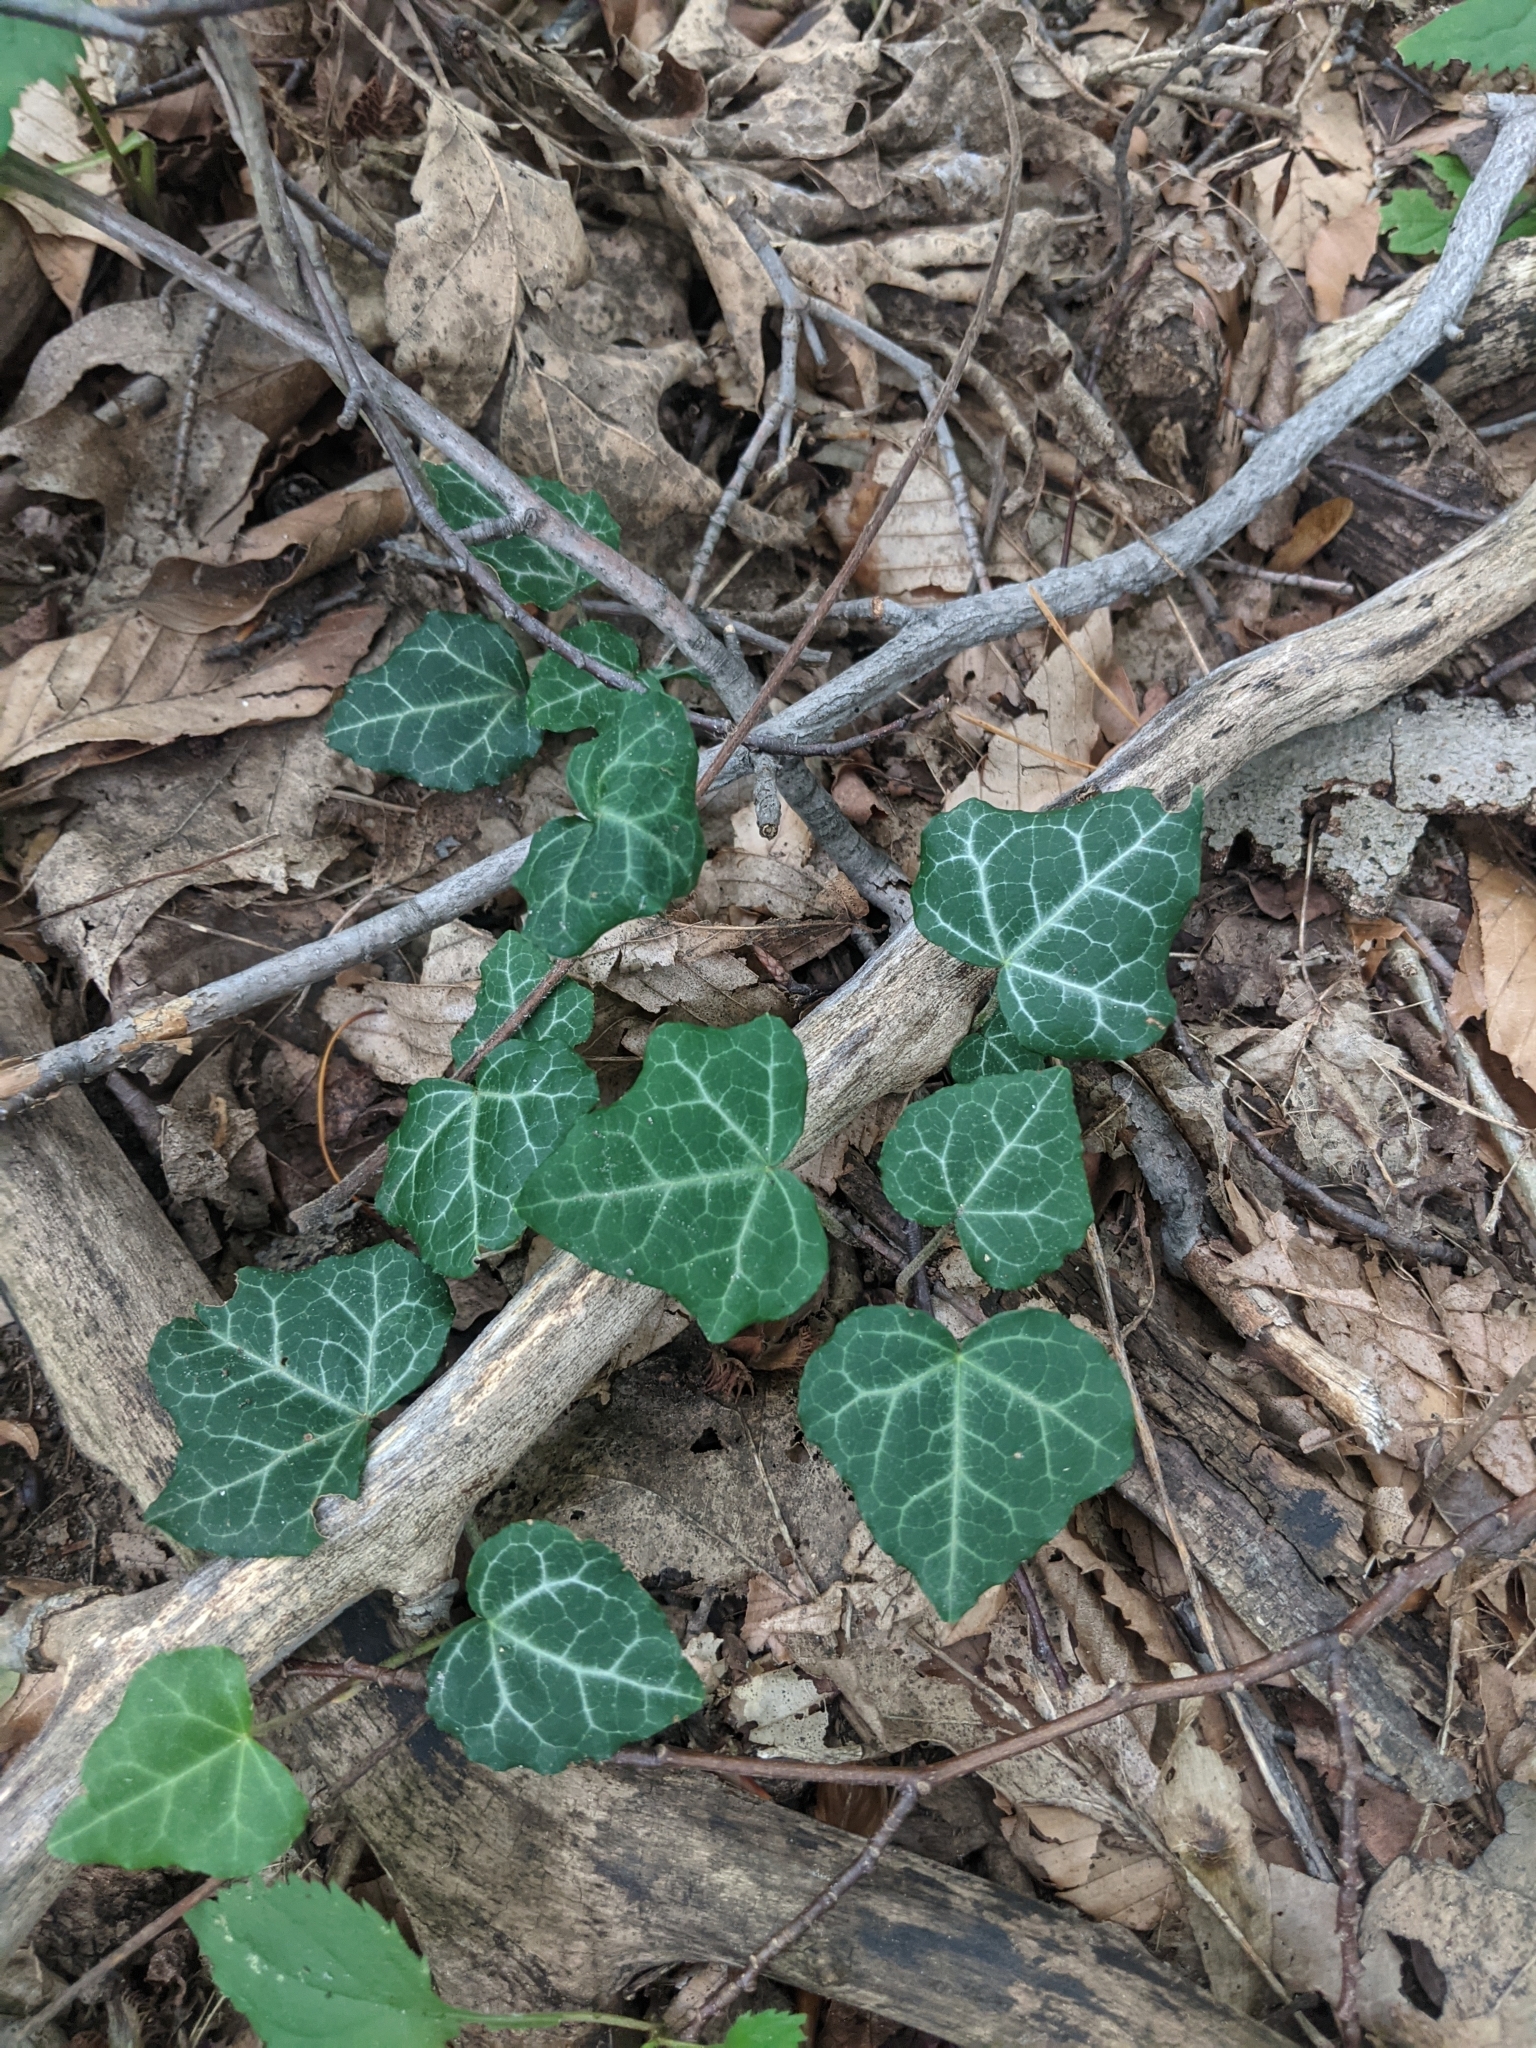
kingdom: Plantae
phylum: Tracheophyta
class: Magnoliopsida
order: Apiales
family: Araliaceae
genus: Hedera
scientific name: Hedera helix
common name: Ivy
